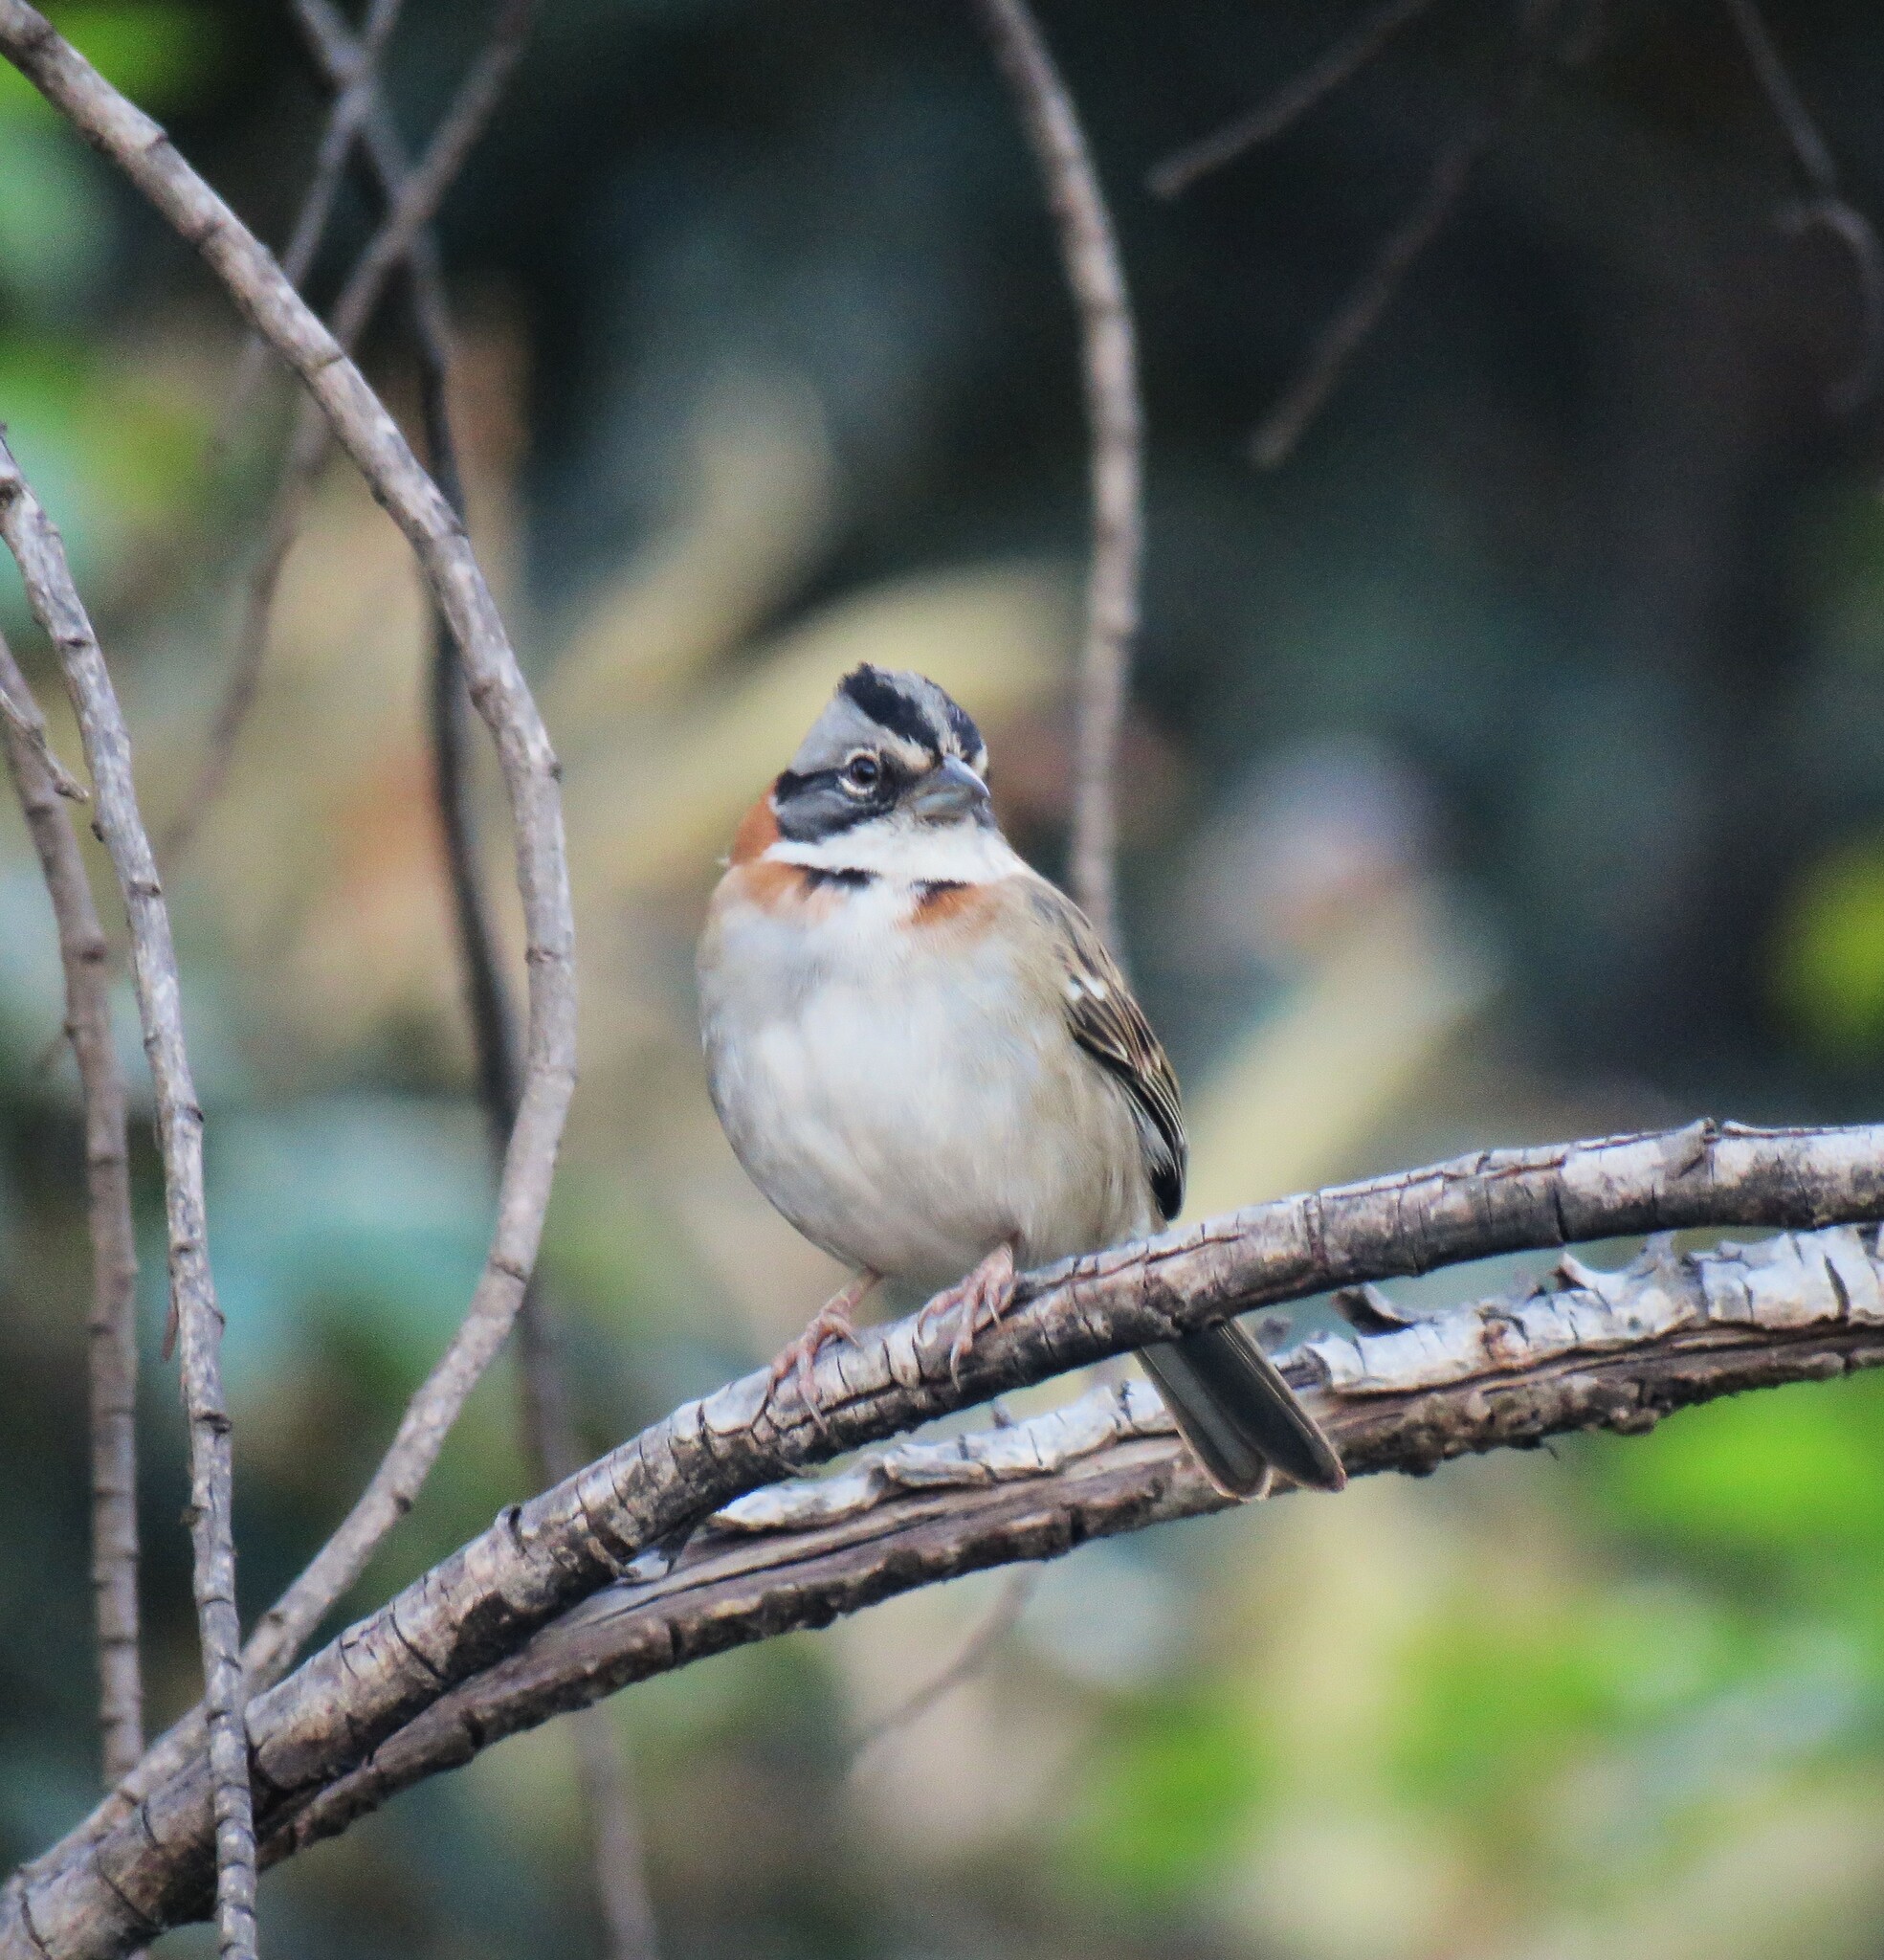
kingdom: Animalia
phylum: Chordata
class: Aves
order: Passeriformes
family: Passerellidae
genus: Zonotrichia
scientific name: Zonotrichia capensis
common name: Rufous-collared sparrow
